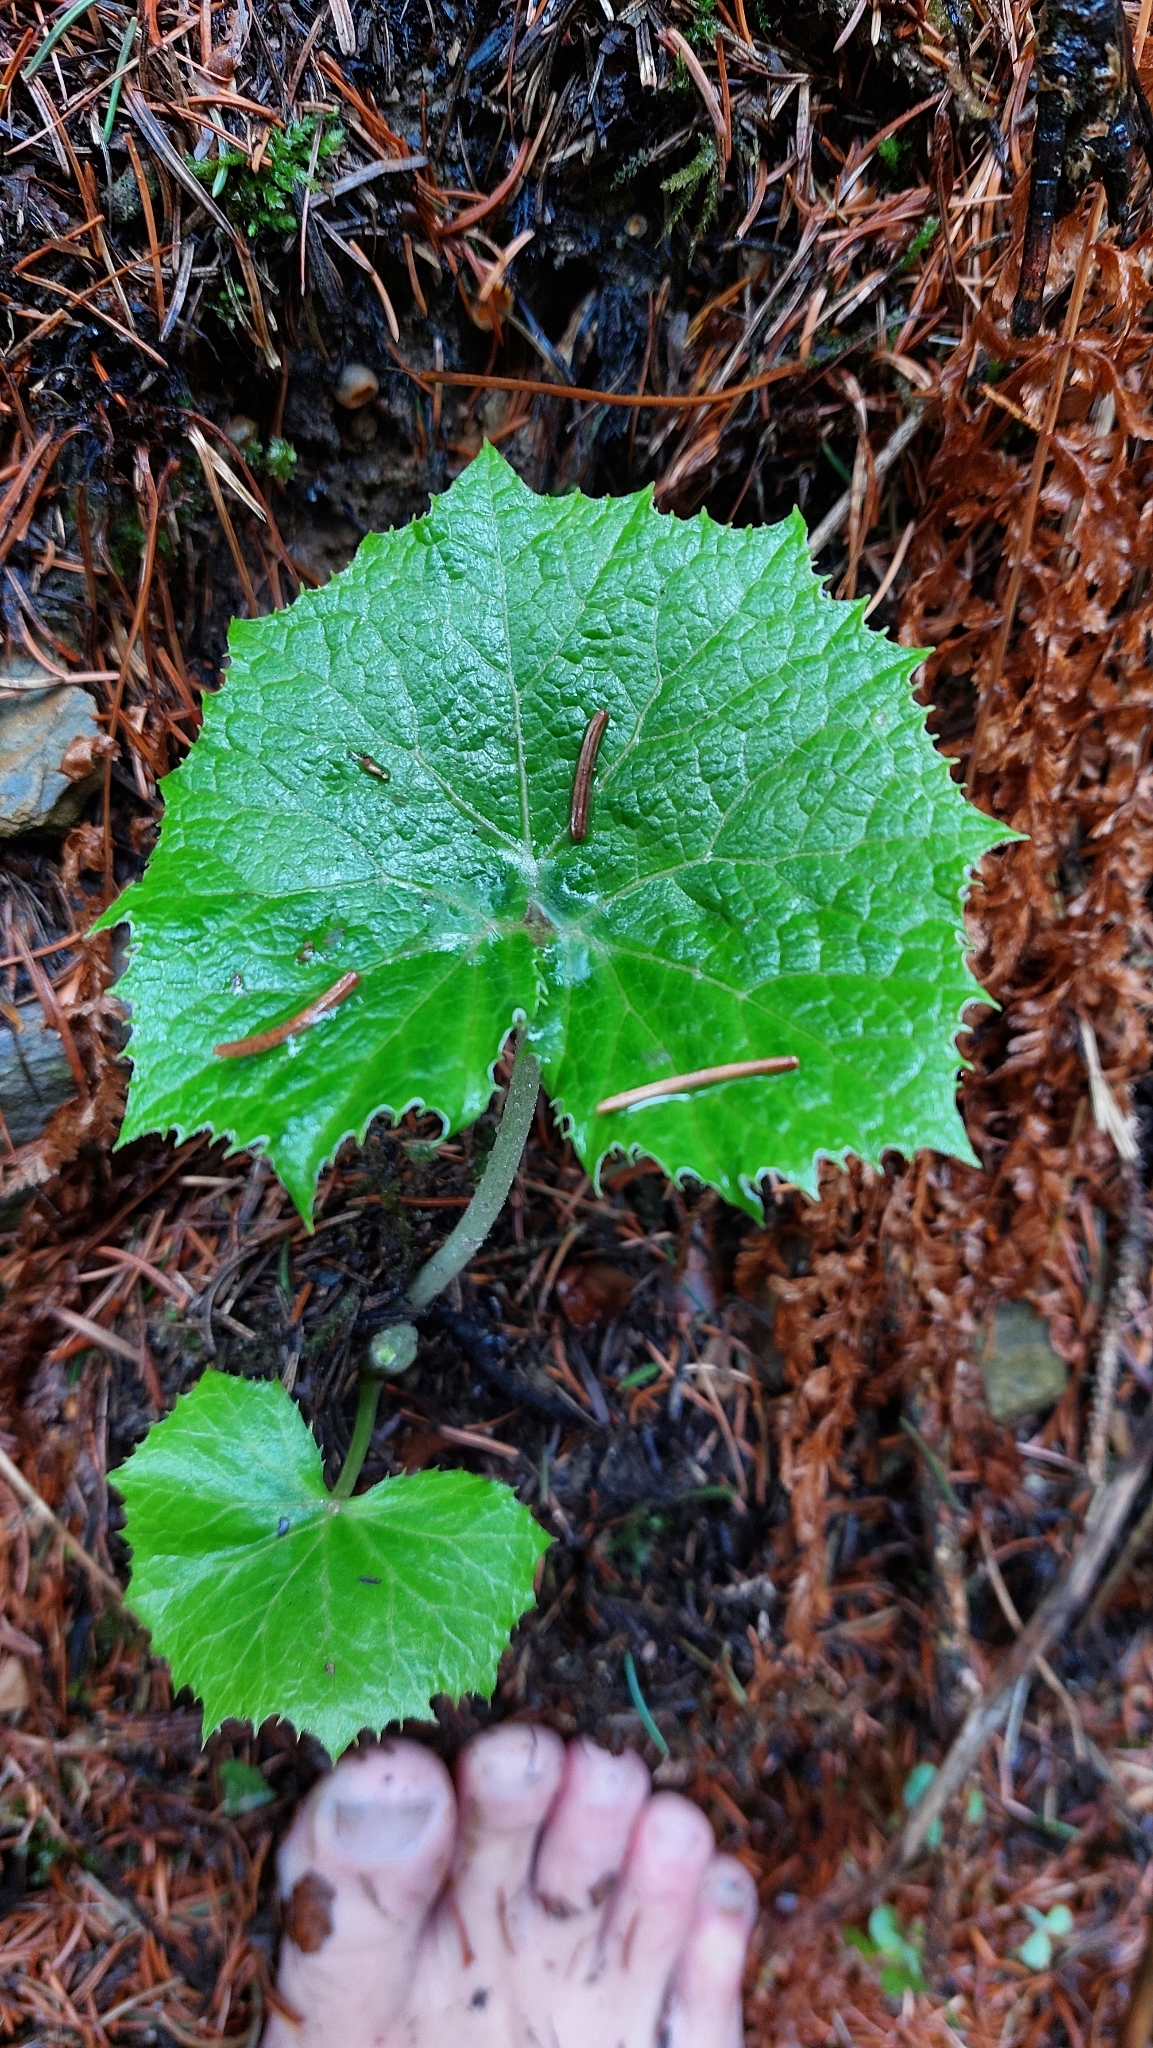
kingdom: Plantae
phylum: Tracheophyta
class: Magnoliopsida
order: Asterales
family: Asteraceae
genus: Petasites
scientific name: Petasites albus
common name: White butterbur
